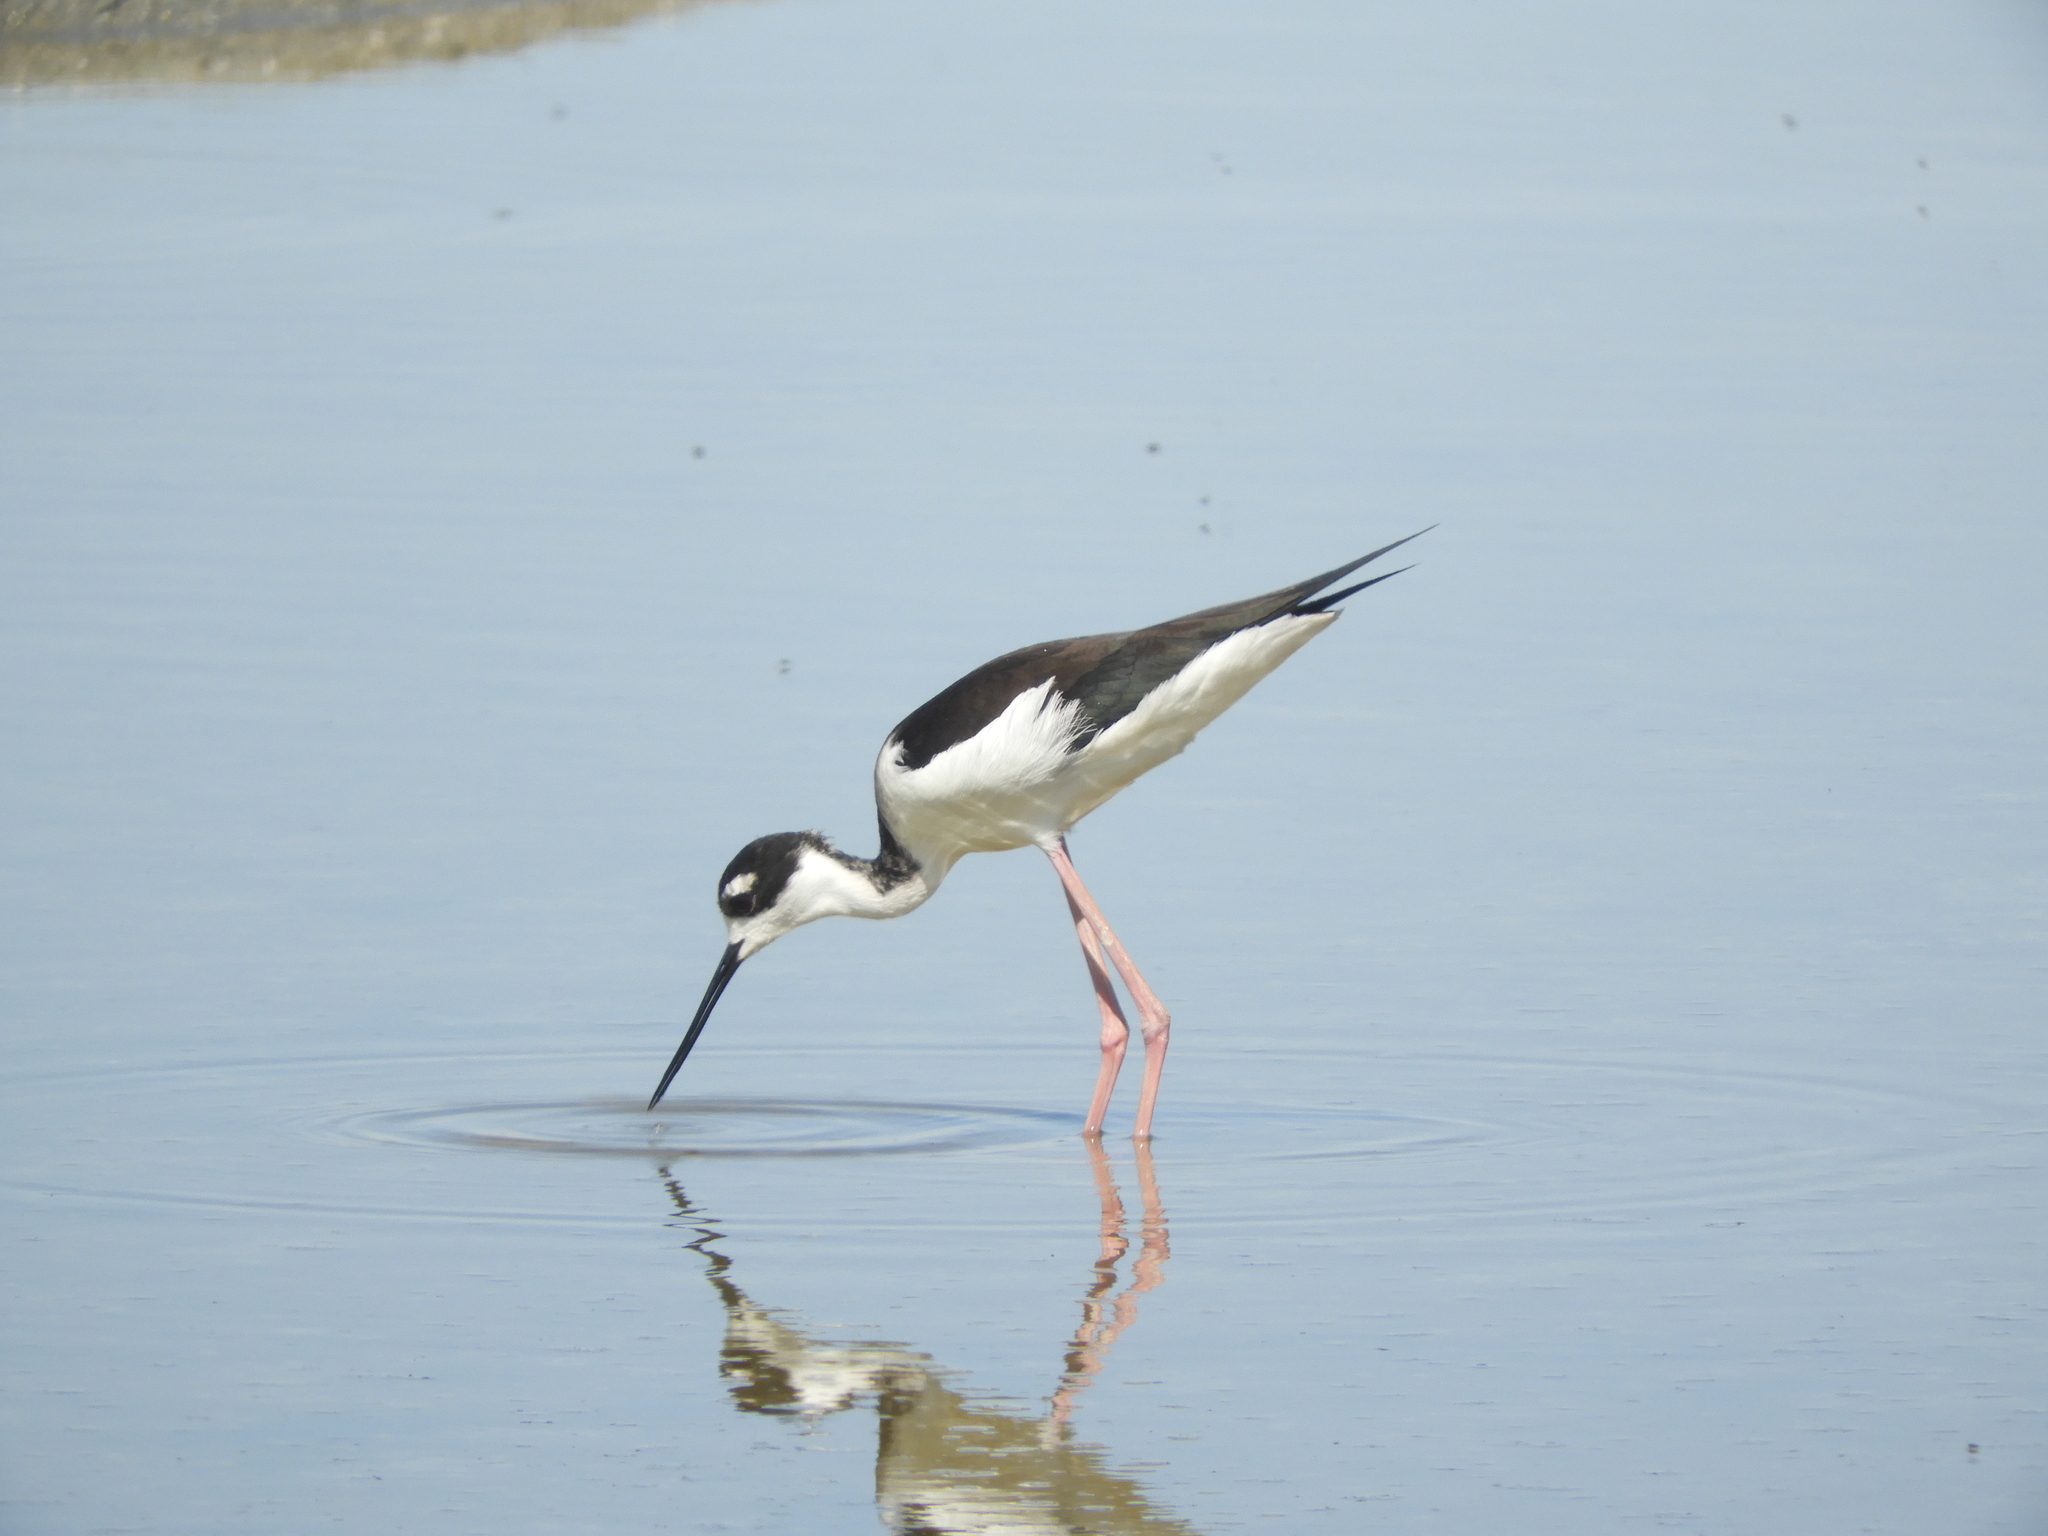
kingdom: Animalia
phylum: Chordata
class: Aves
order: Charadriiformes
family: Recurvirostridae
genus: Himantopus
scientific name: Himantopus mexicanus
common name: Black-necked stilt
